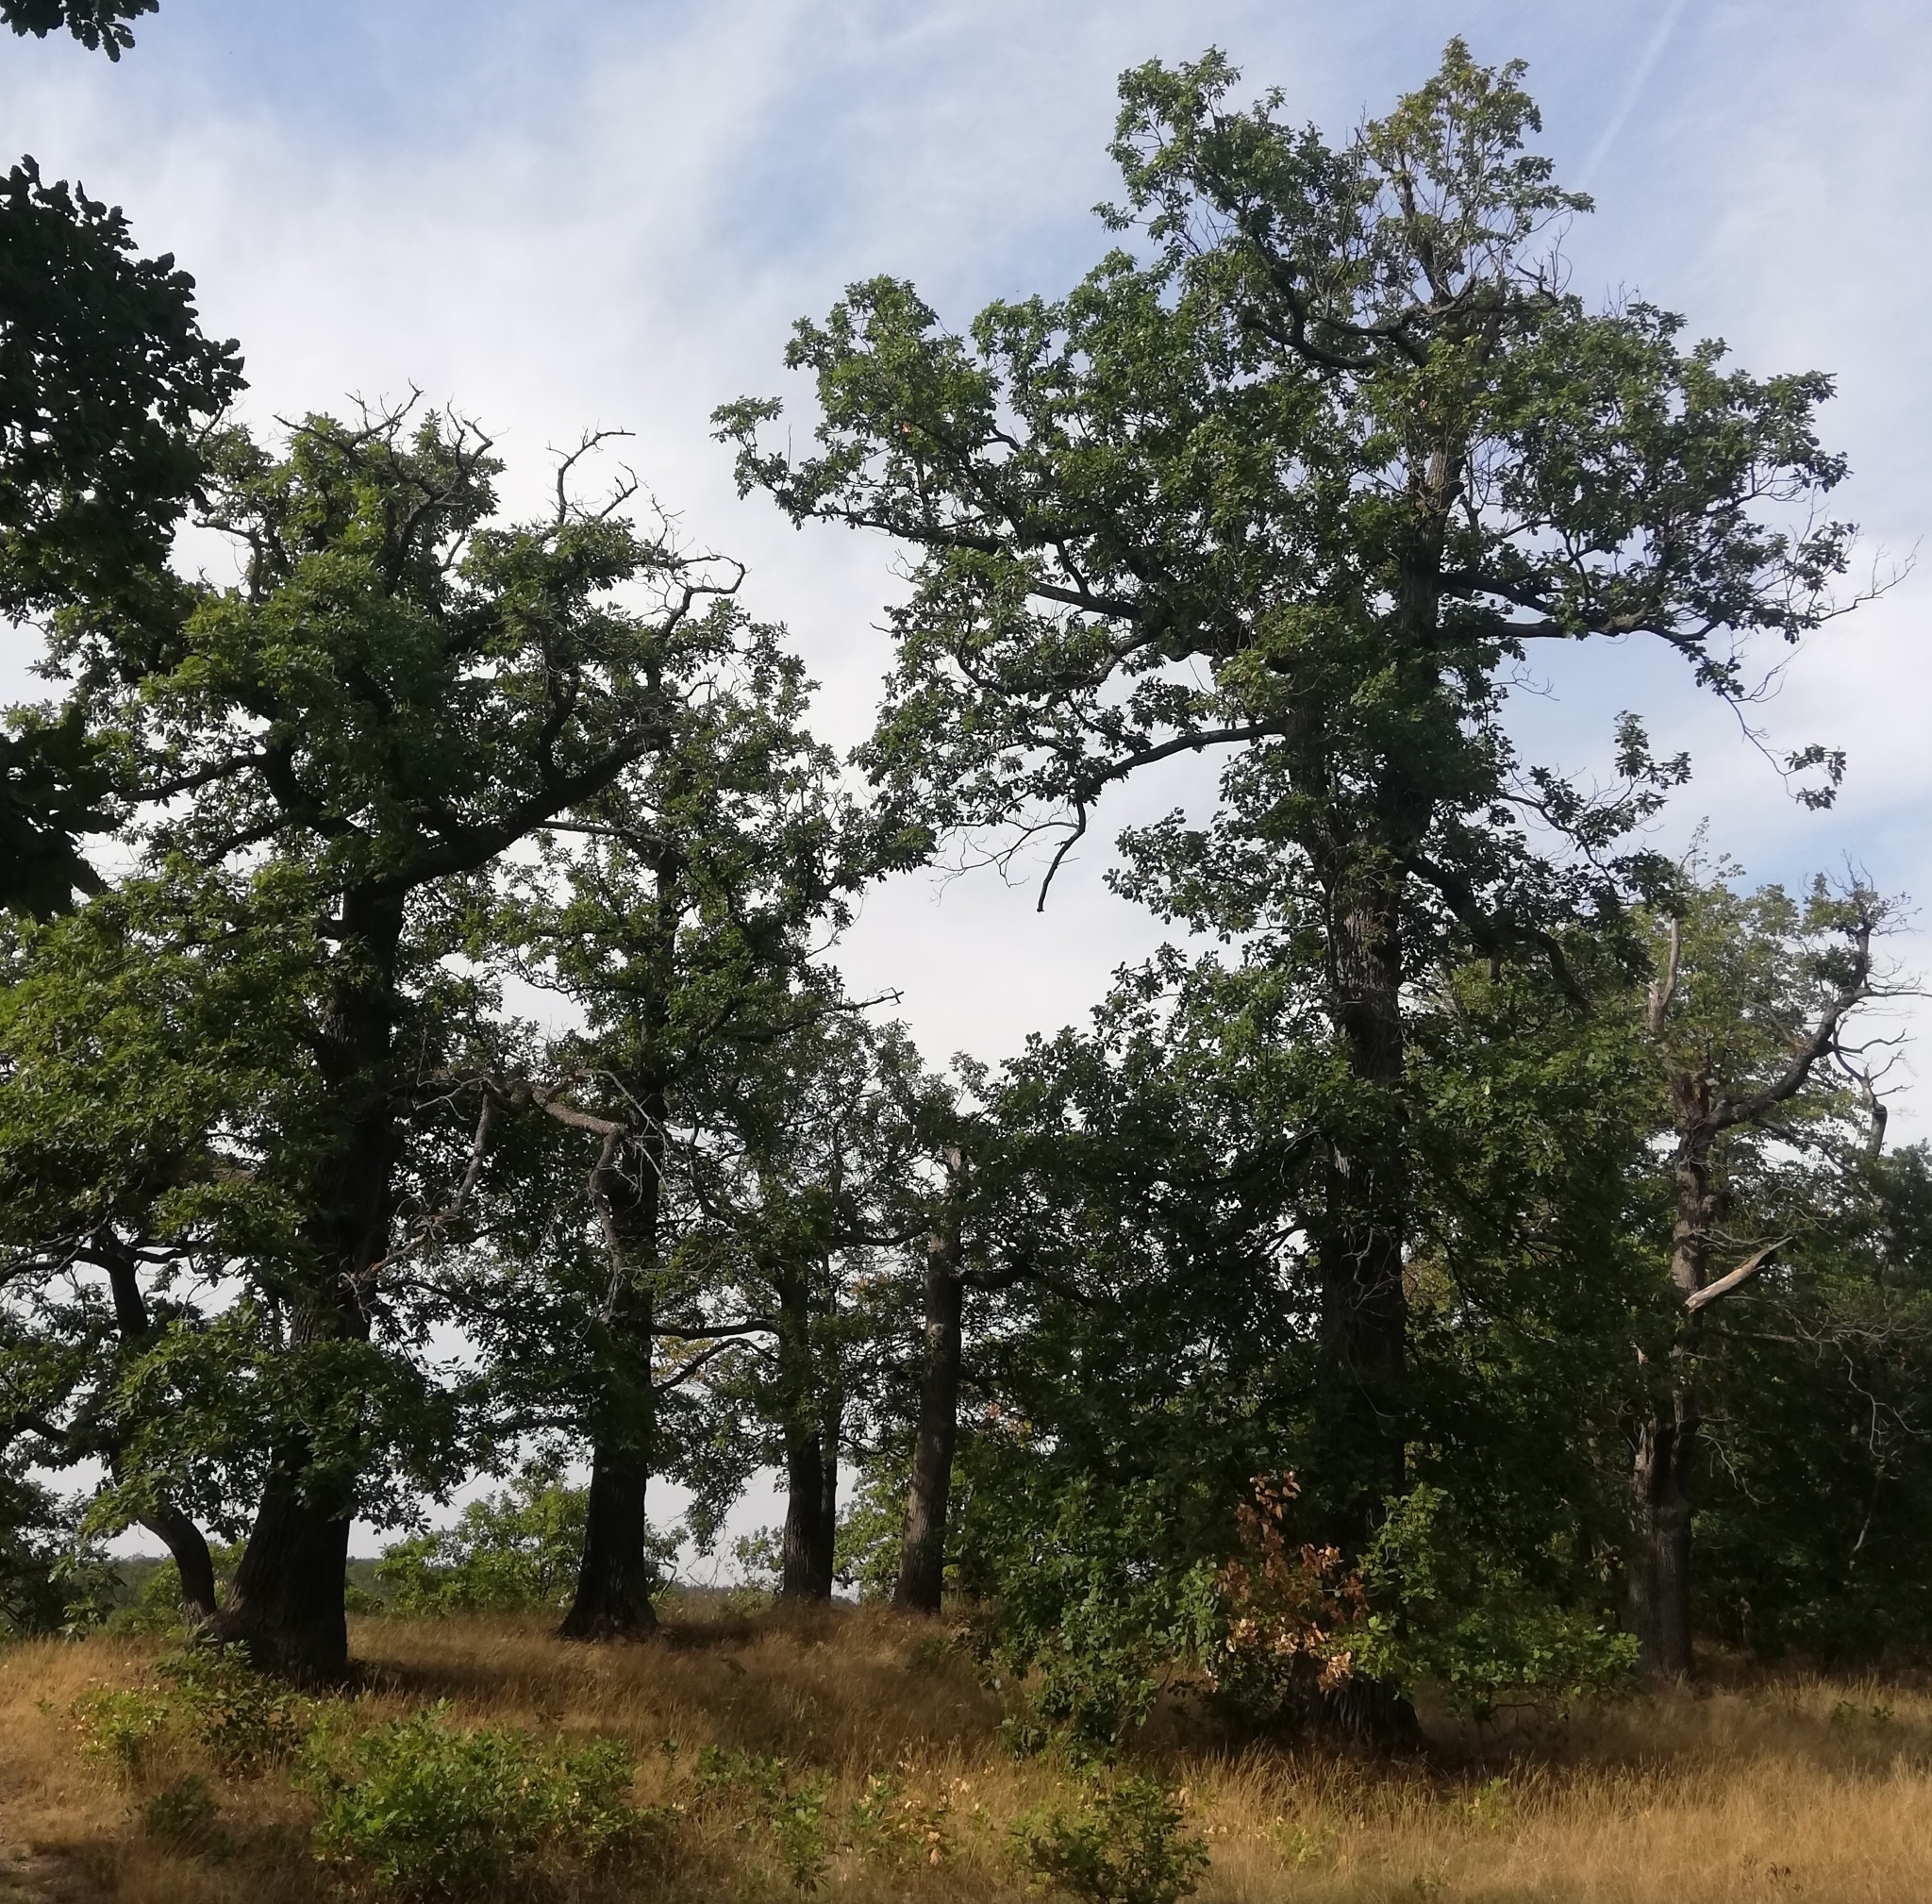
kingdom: Plantae
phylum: Tracheophyta
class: Magnoliopsida
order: Fagales
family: Fagaceae
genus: Quercus
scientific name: Quercus rosacea
